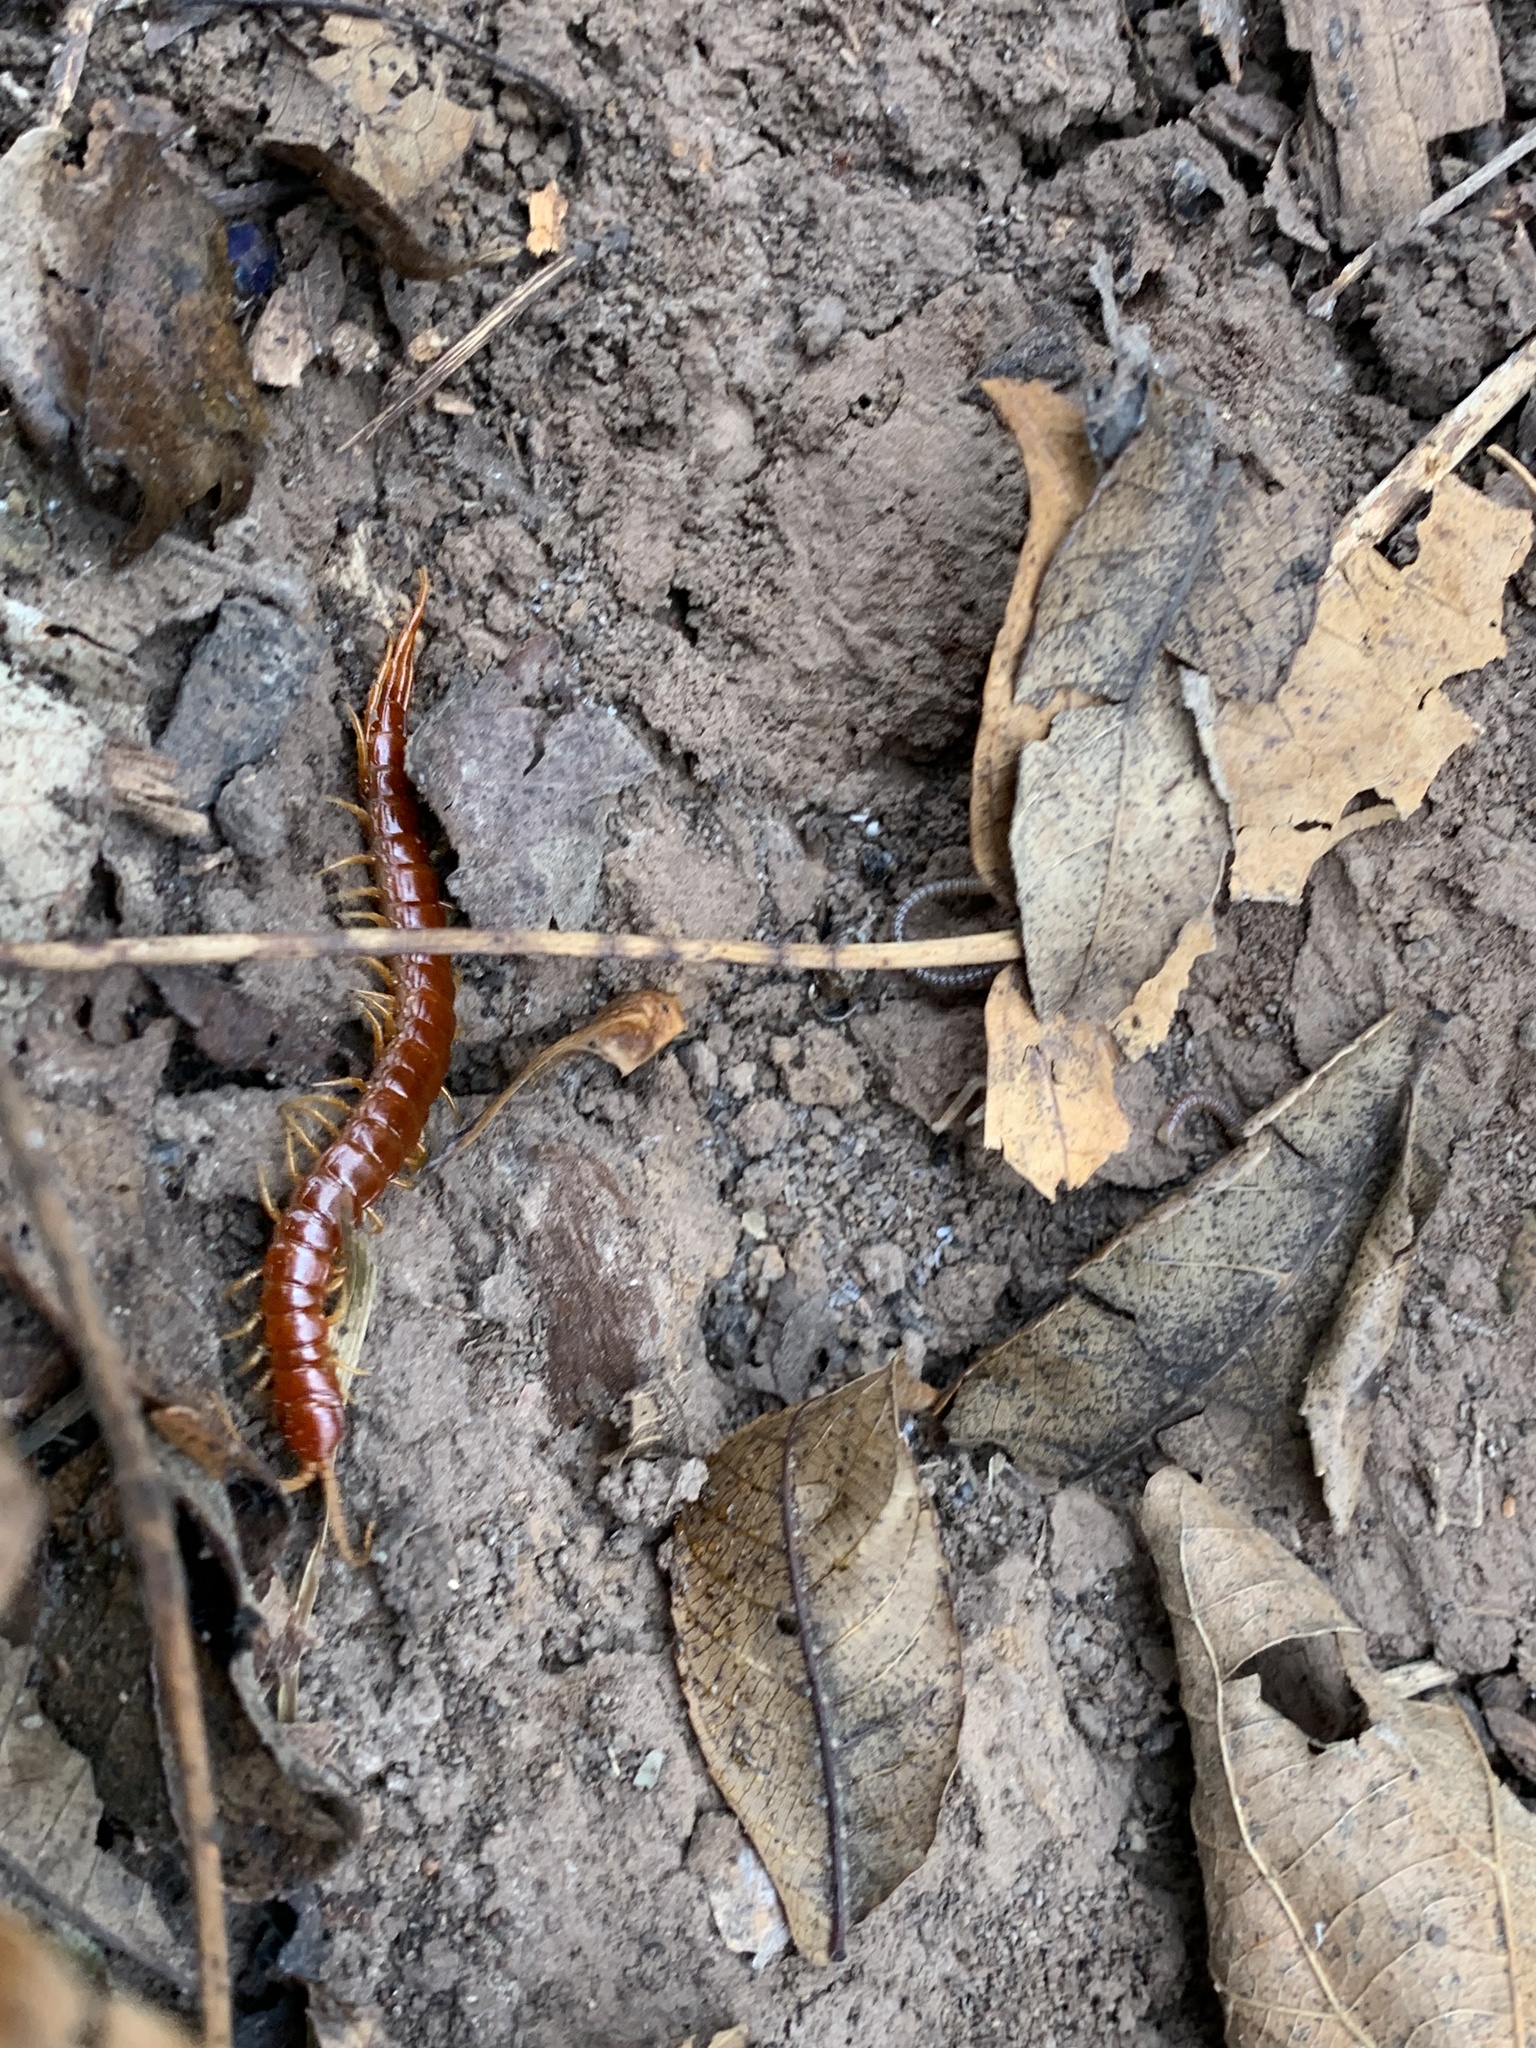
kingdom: Animalia
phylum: Arthropoda
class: Chilopoda
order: Scolopendromorpha
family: Scolopocryptopidae
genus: Scolopocryptops
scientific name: Scolopocryptops sexspinosus
